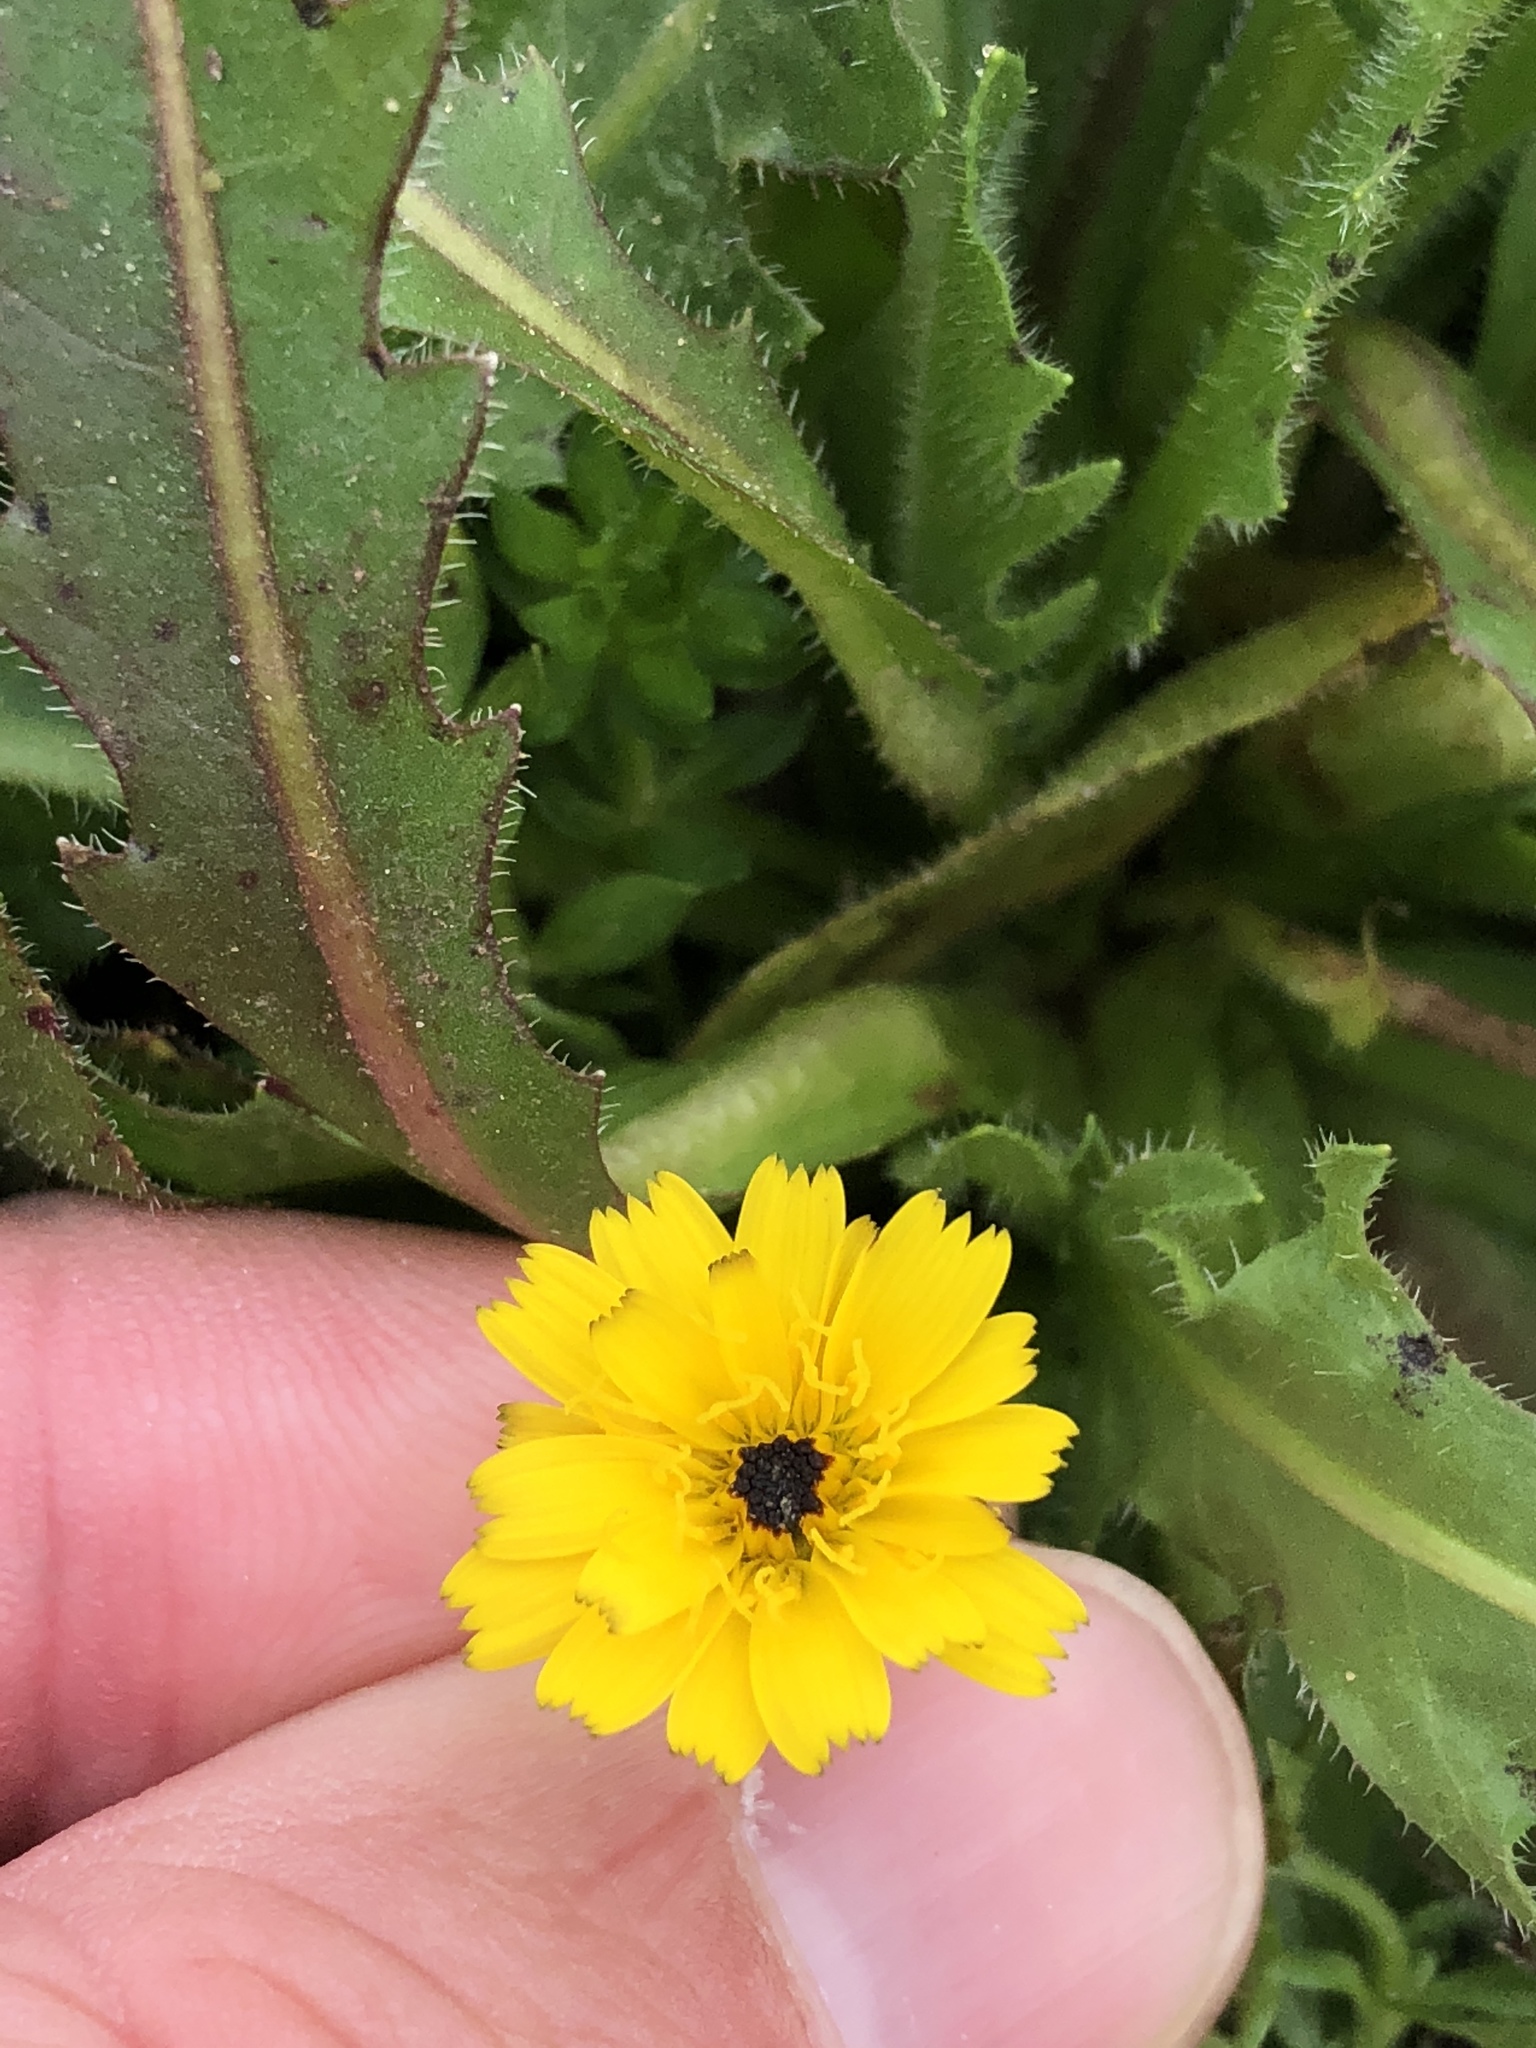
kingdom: Plantae
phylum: Tracheophyta
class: Magnoliopsida
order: Asterales
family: Asteraceae
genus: Hedypnois
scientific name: Hedypnois rhagadioloides
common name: Cretan weed
